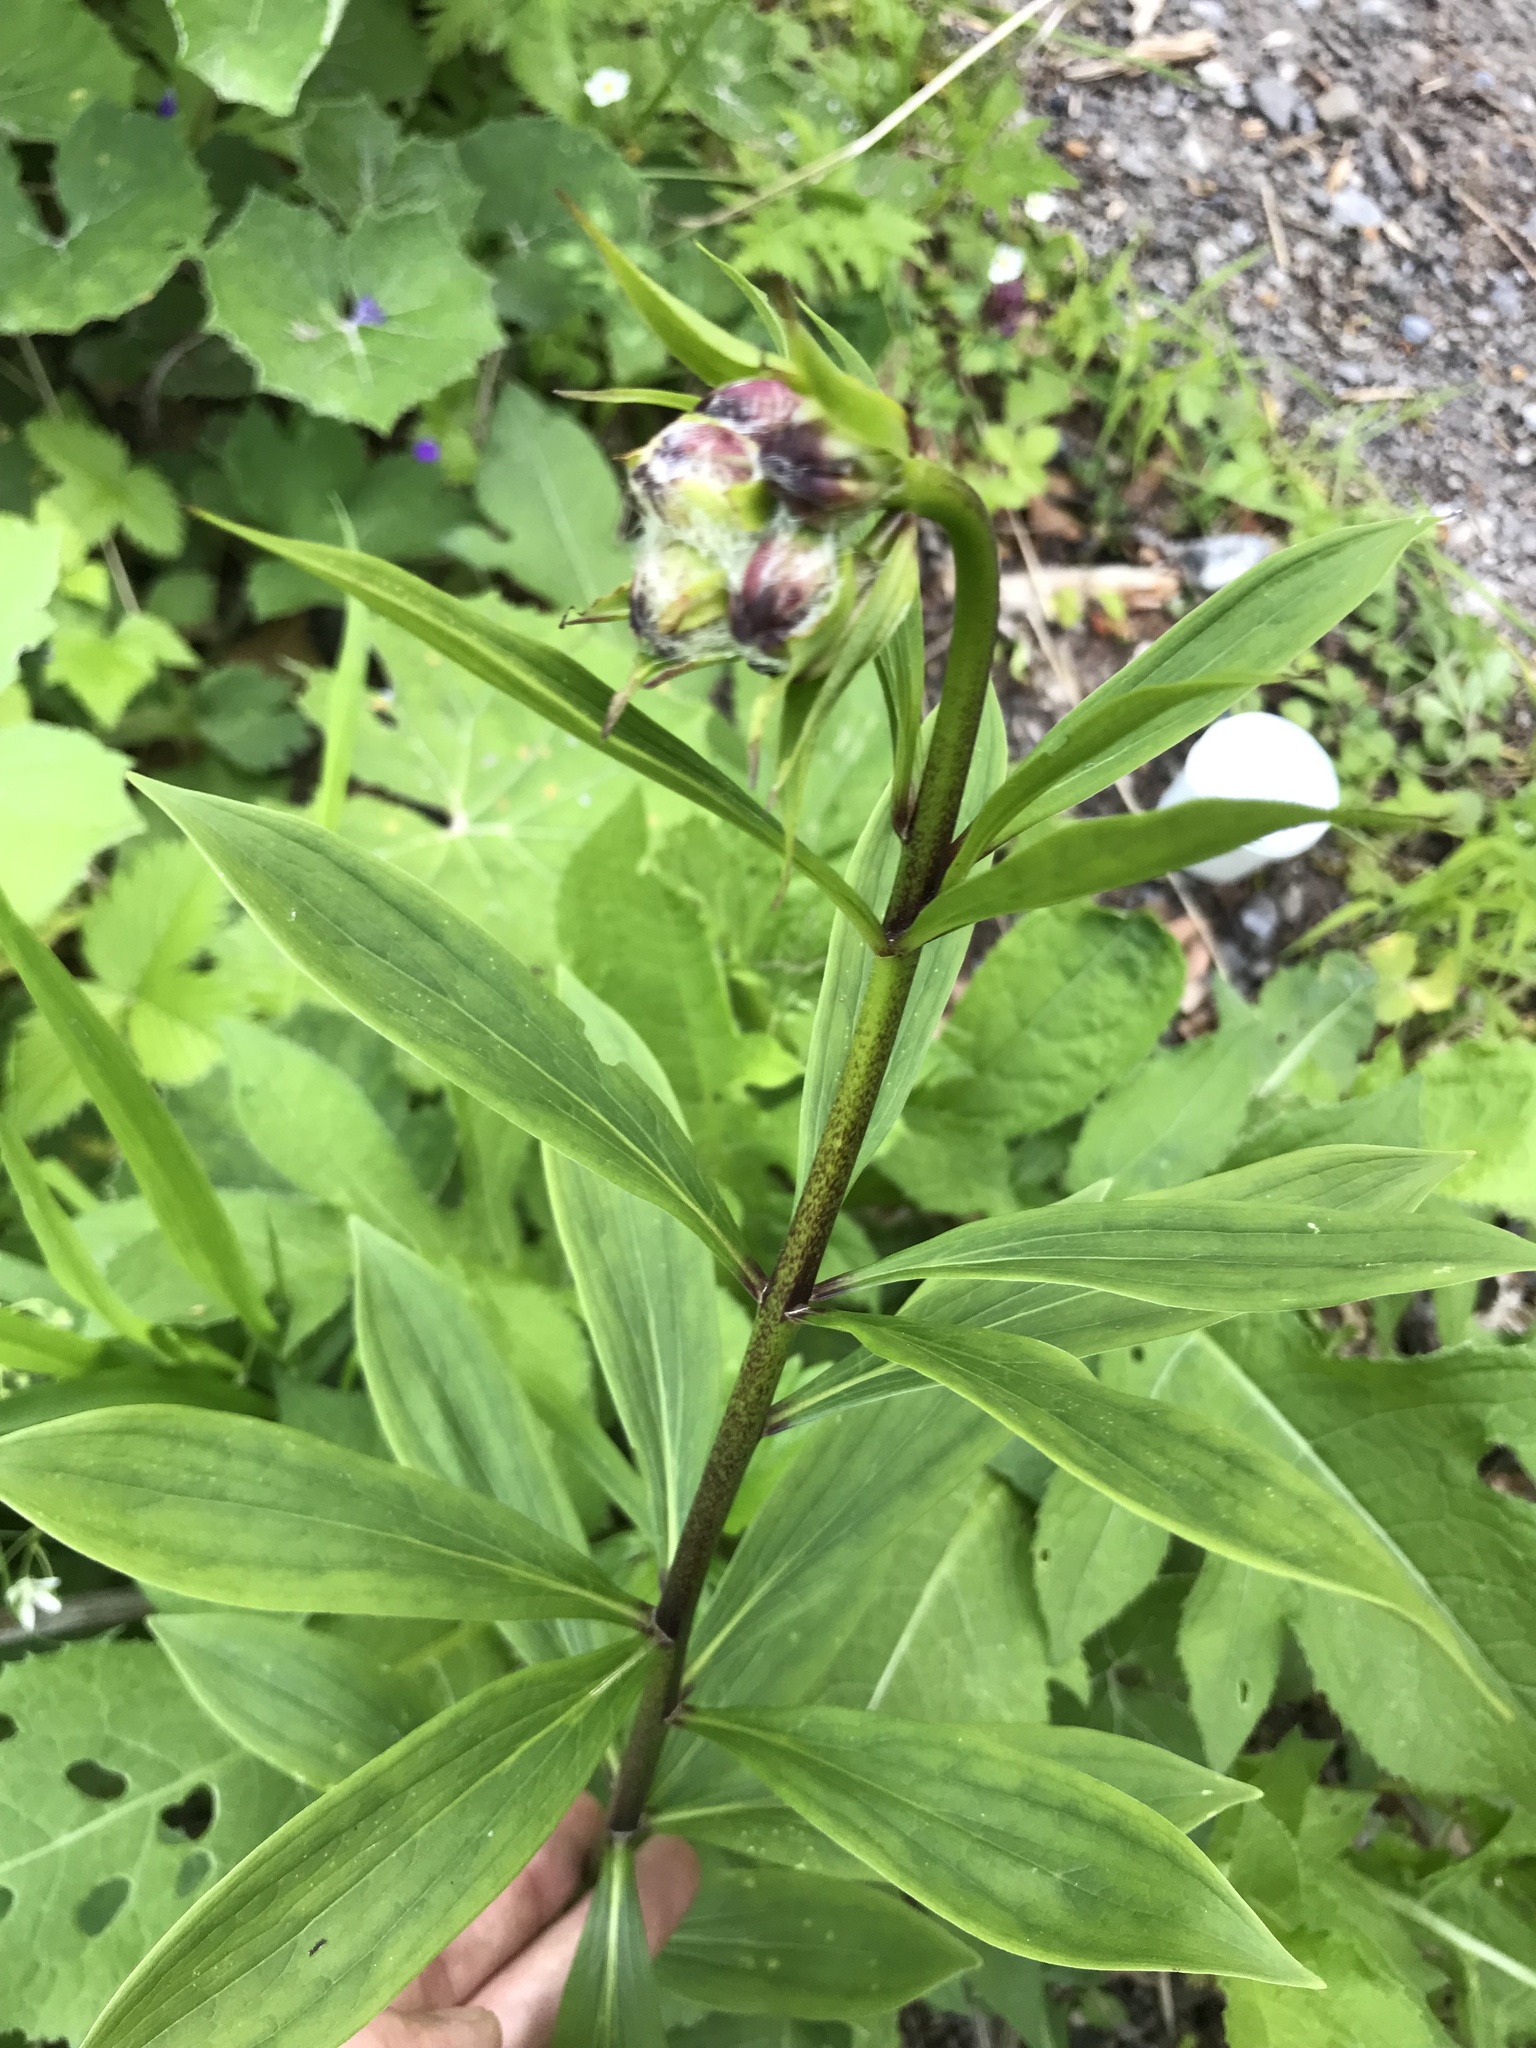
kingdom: Plantae
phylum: Tracheophyta
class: Liliopsida
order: Liliales
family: Liliaceae
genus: Lilium
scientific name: Lilium martagon
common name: Martagon lily
